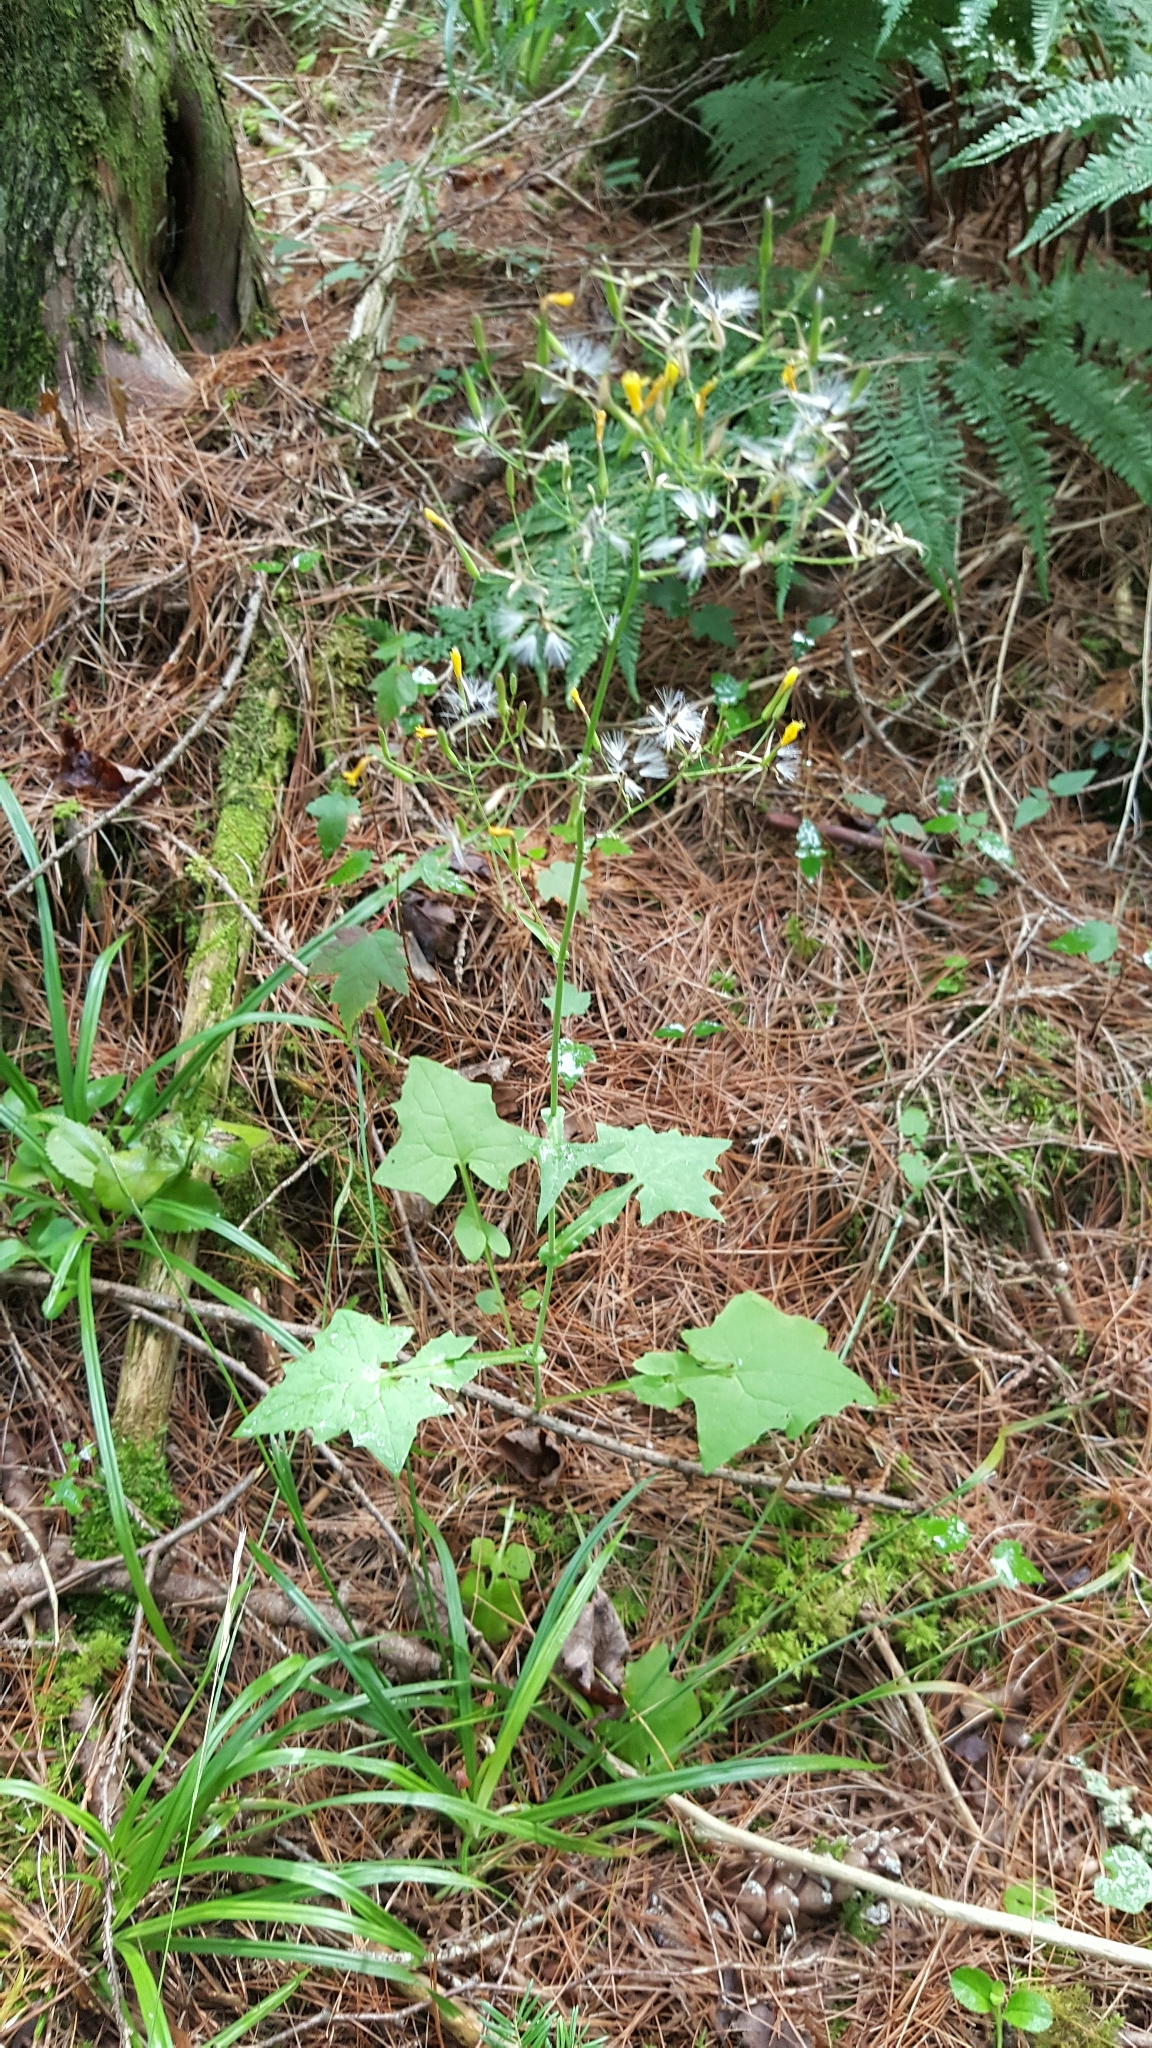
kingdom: Plantae
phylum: Tracheophyta
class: Magnoliopsida
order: Asterales
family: Asteraceae
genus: Mycelis
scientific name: Mycelis muralis
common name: Wall lettuce
